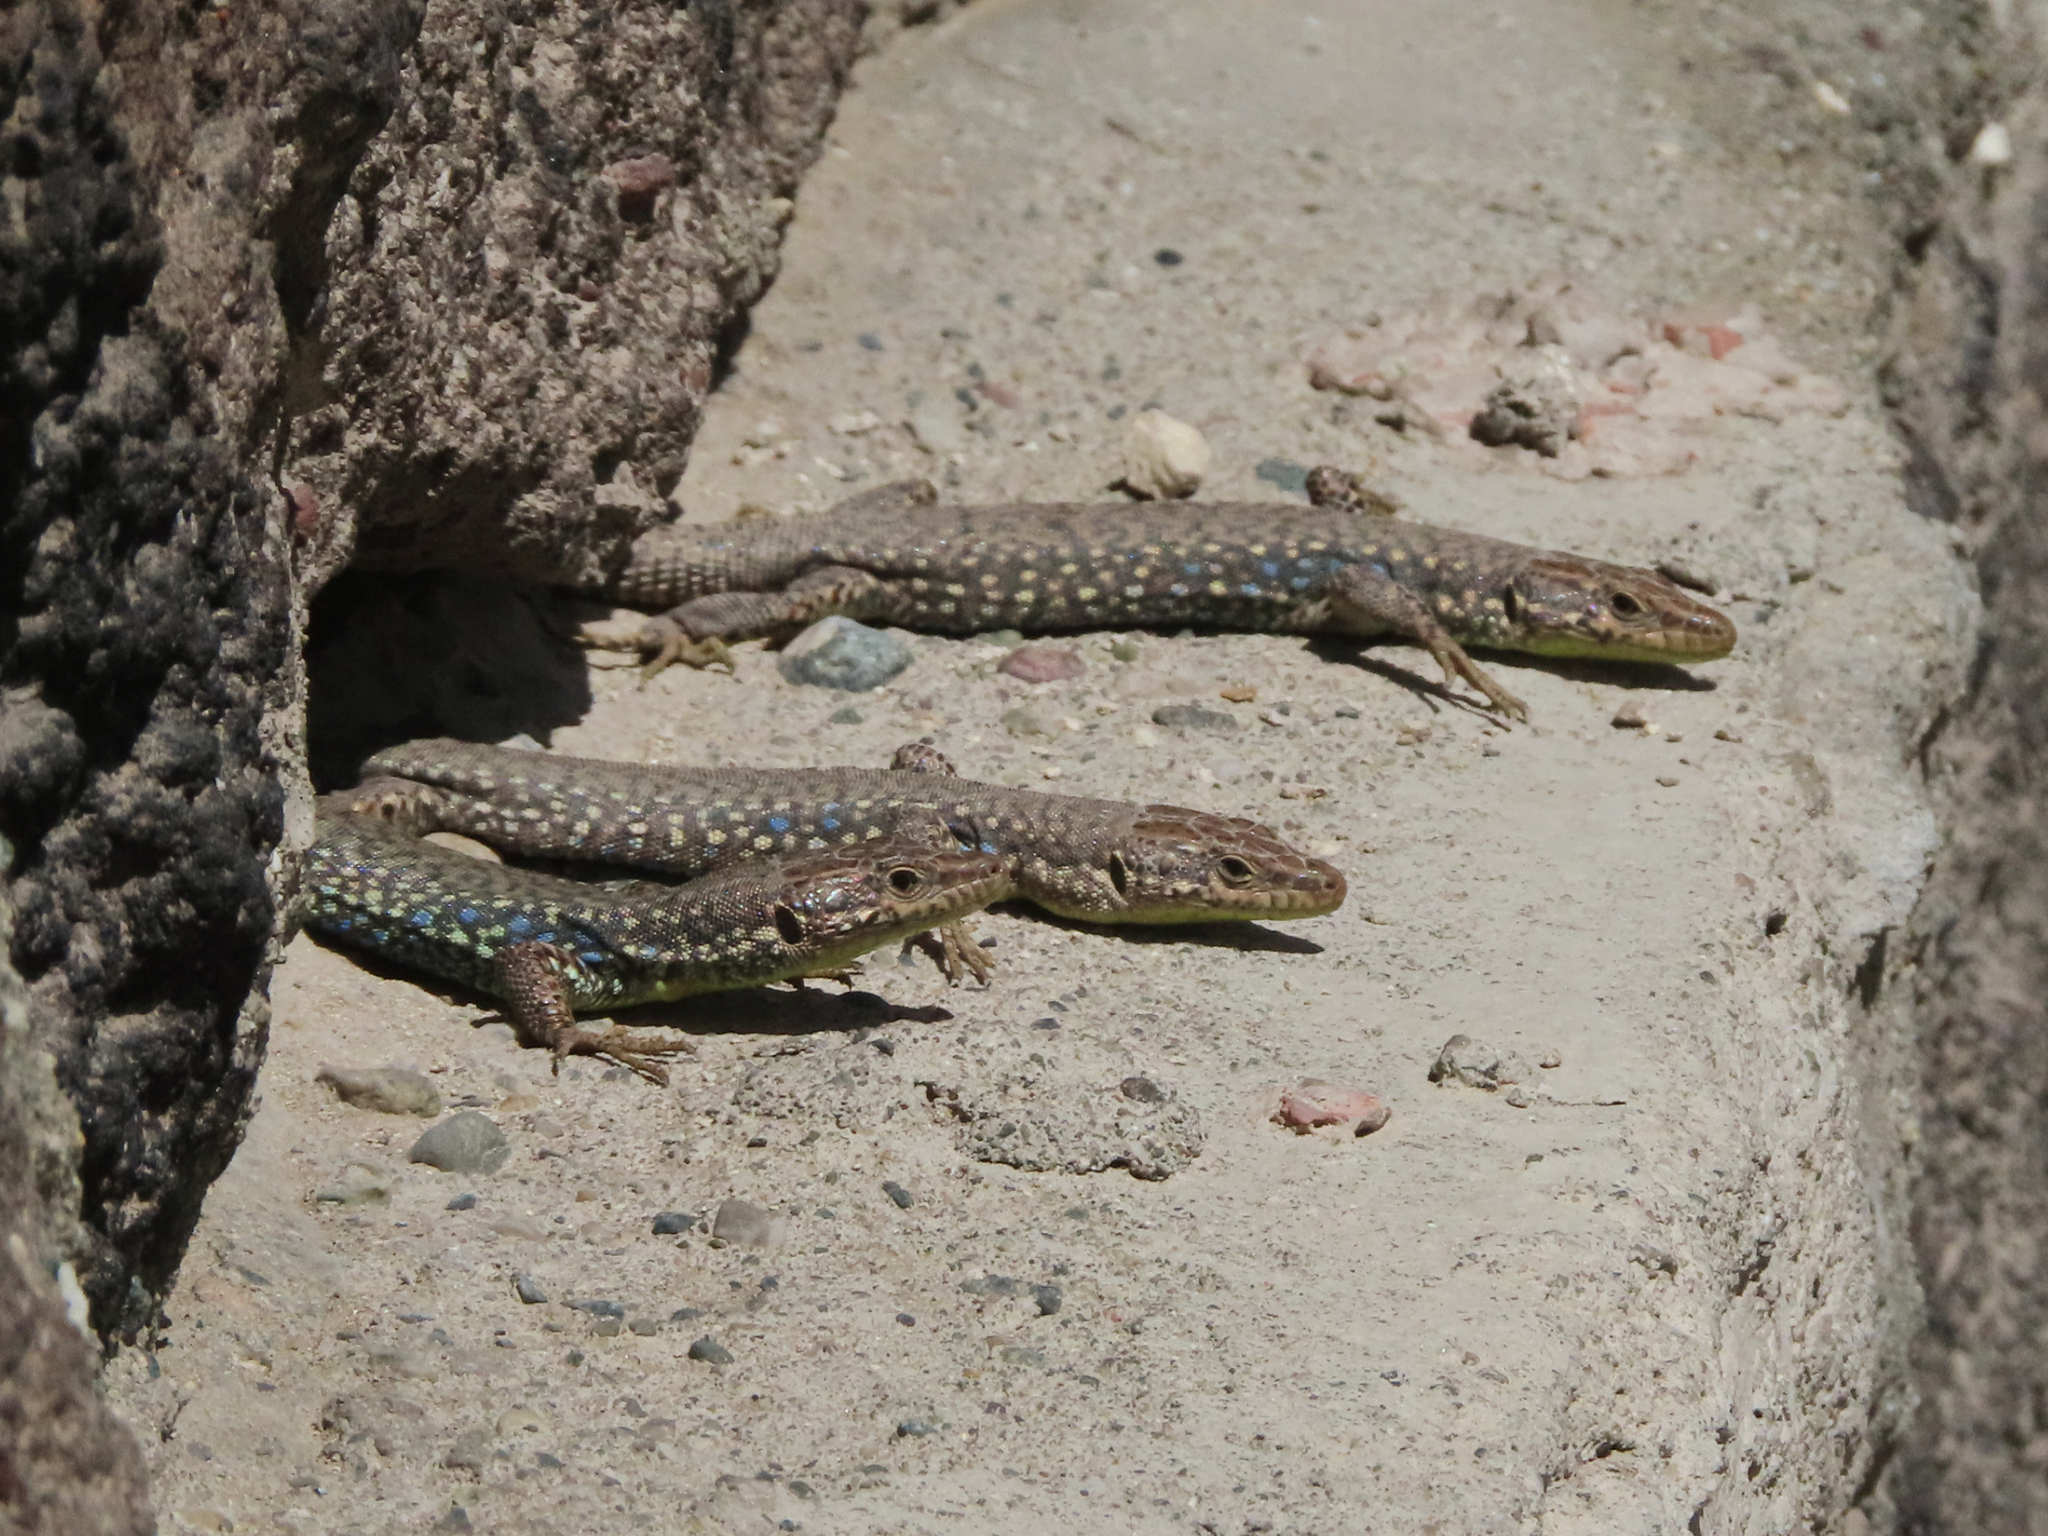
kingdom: Animalia
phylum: Chordata
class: Squamata
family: Lacertidae
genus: Darevskia
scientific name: Darevskia
